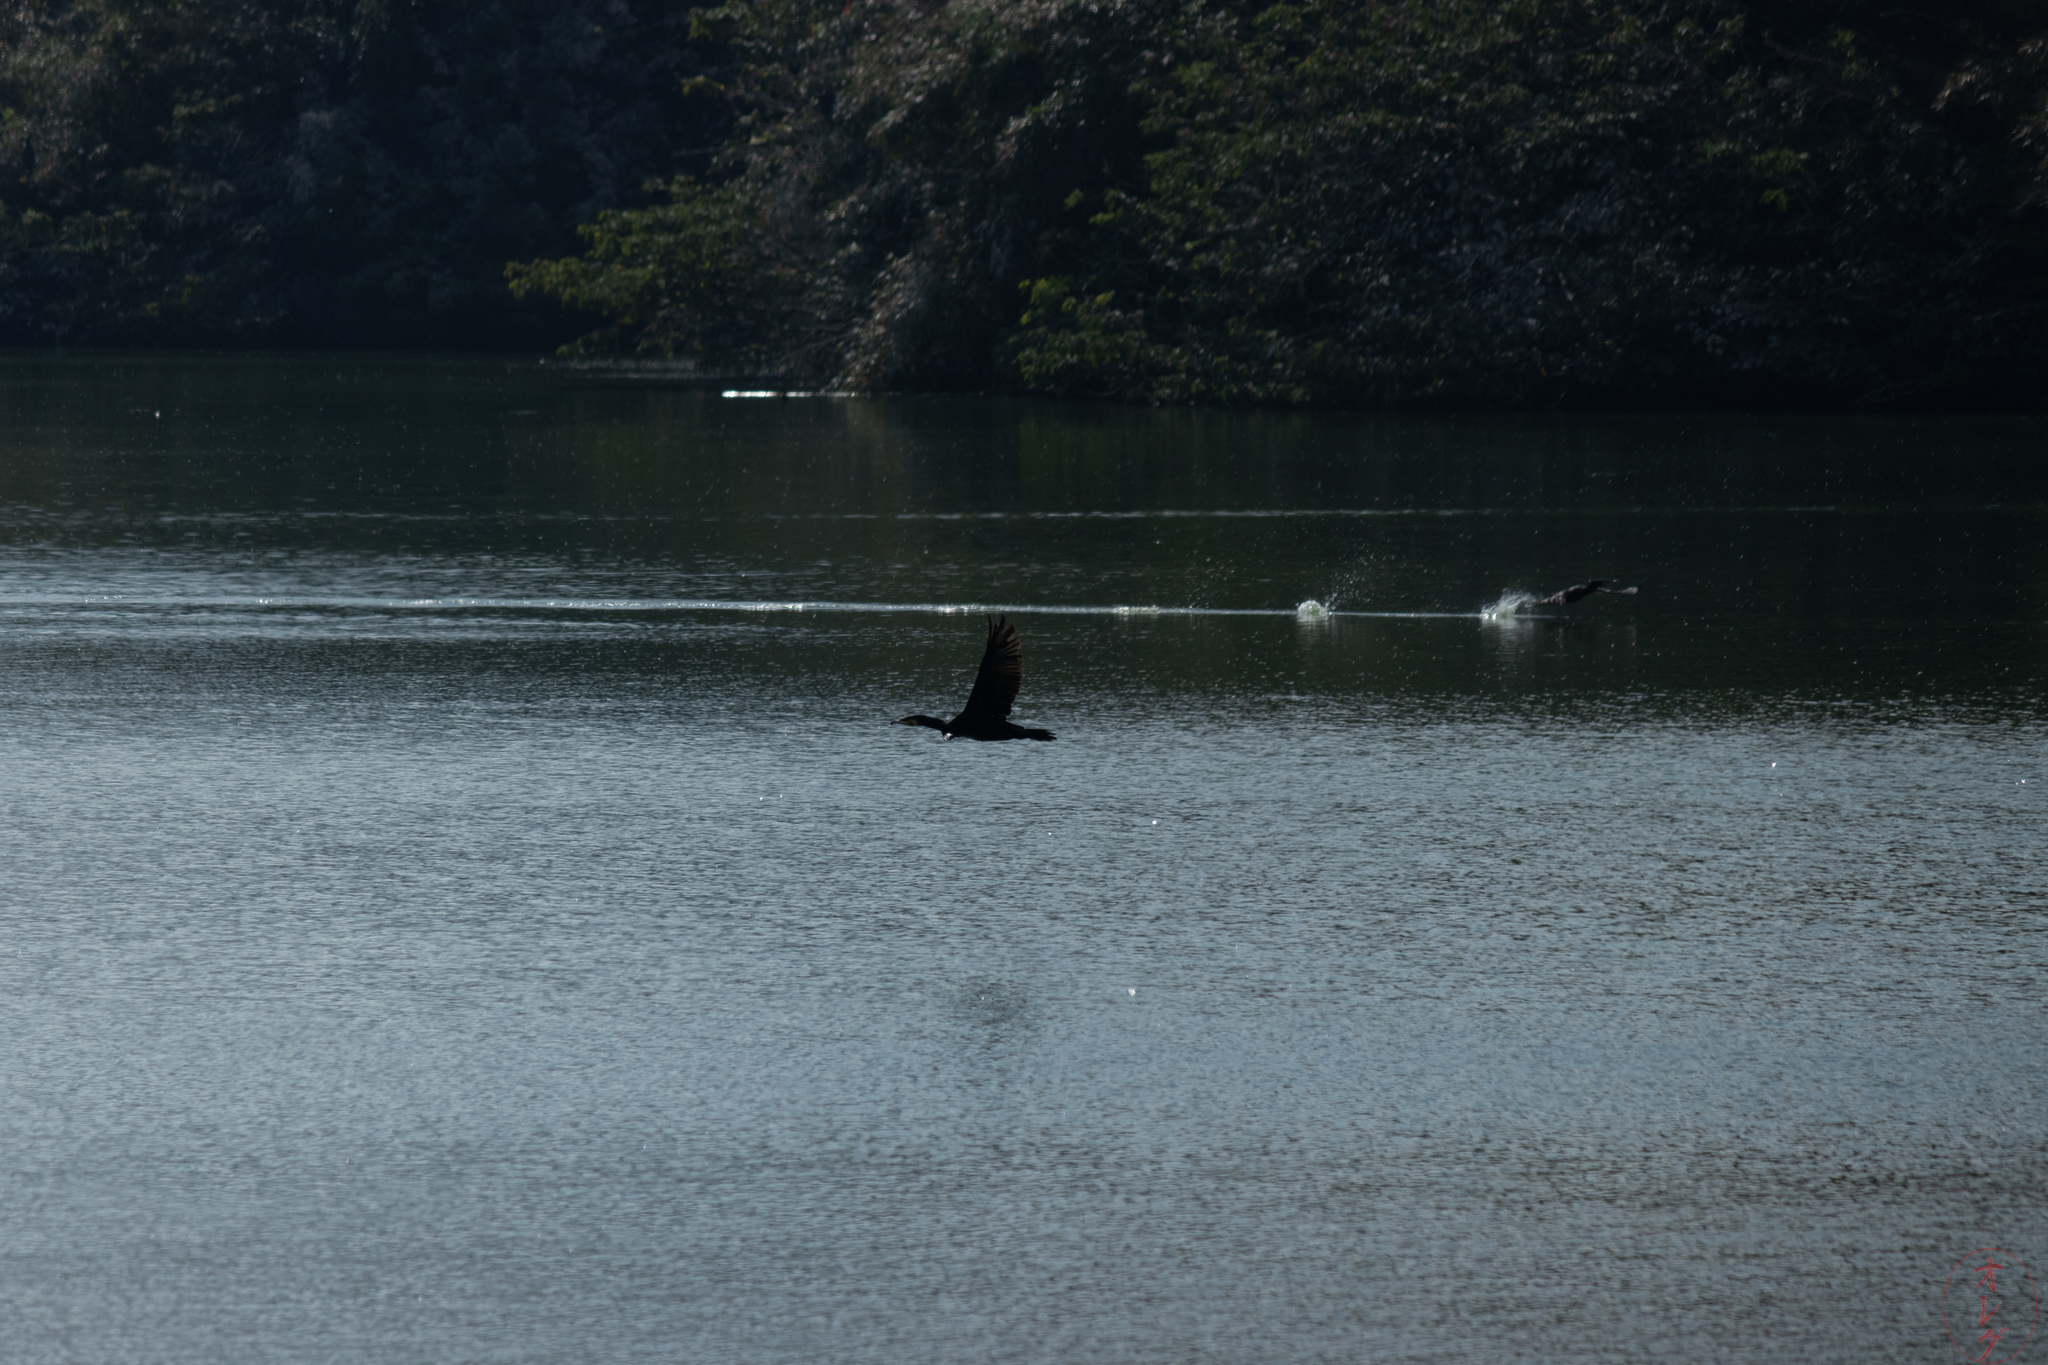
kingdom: Animalia
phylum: Chordata
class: Aves
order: Suliformes
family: Phalacrocoracidae
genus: Phalacrocorax
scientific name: Phalacrocorax carbo
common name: Great cormorant
